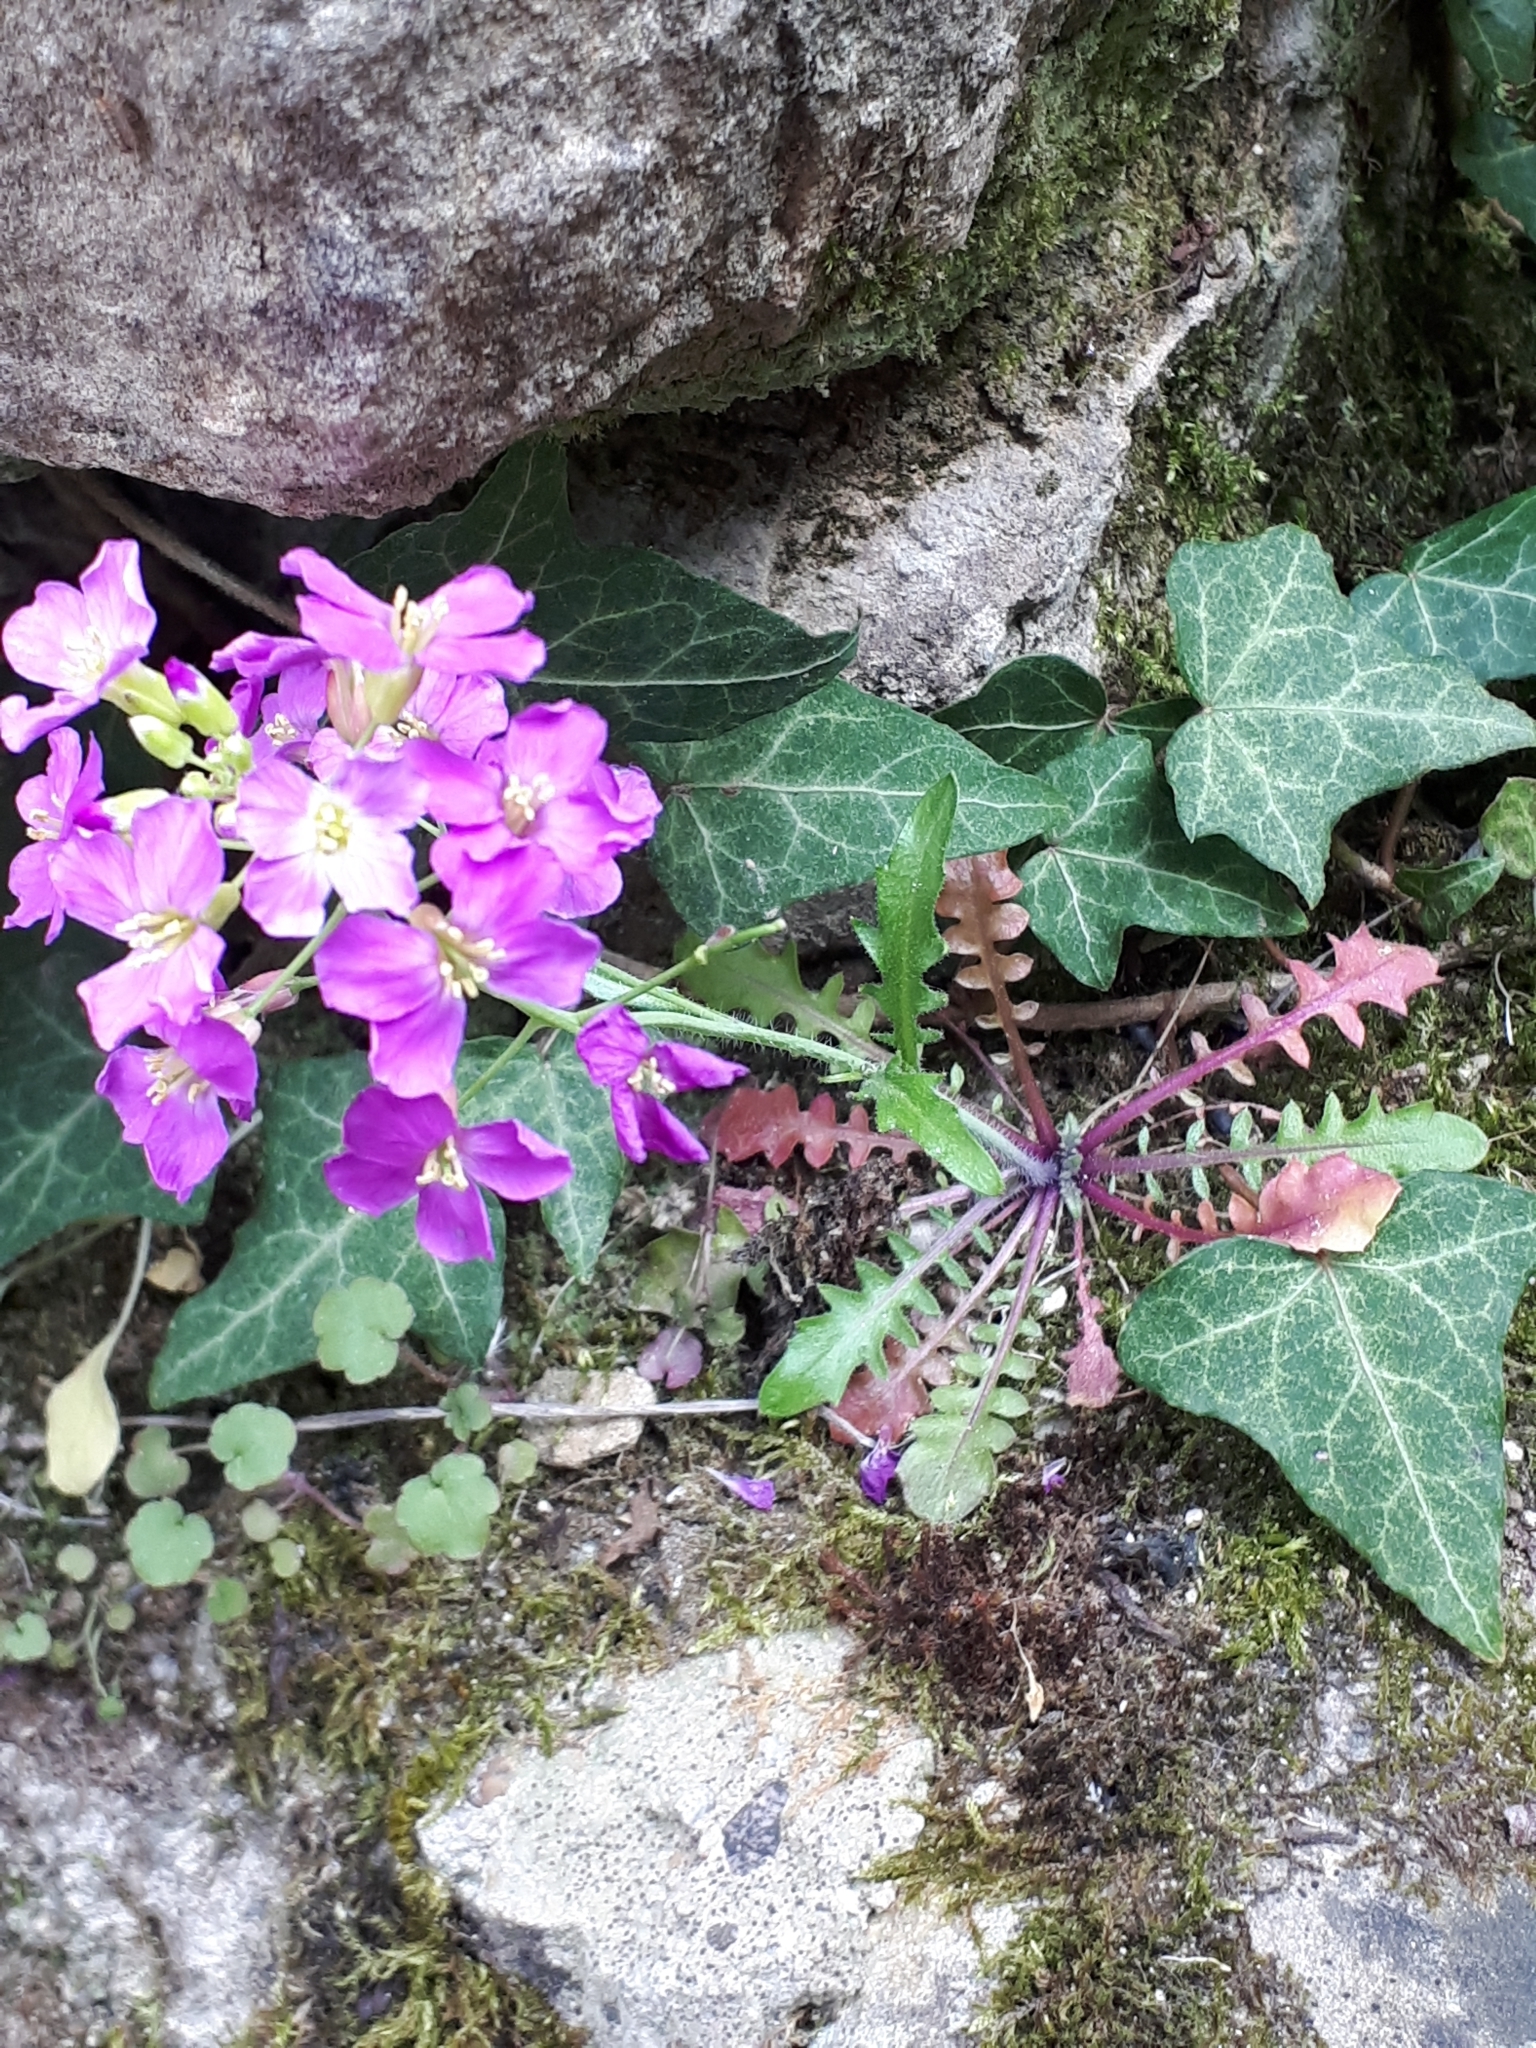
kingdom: Plantae
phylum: Tracheophyta
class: Magnoliopsida
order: Brassicales
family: Brassicaceae
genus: Arabidopsis
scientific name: Arabidopsis arenosa
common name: Sand rock-cress
